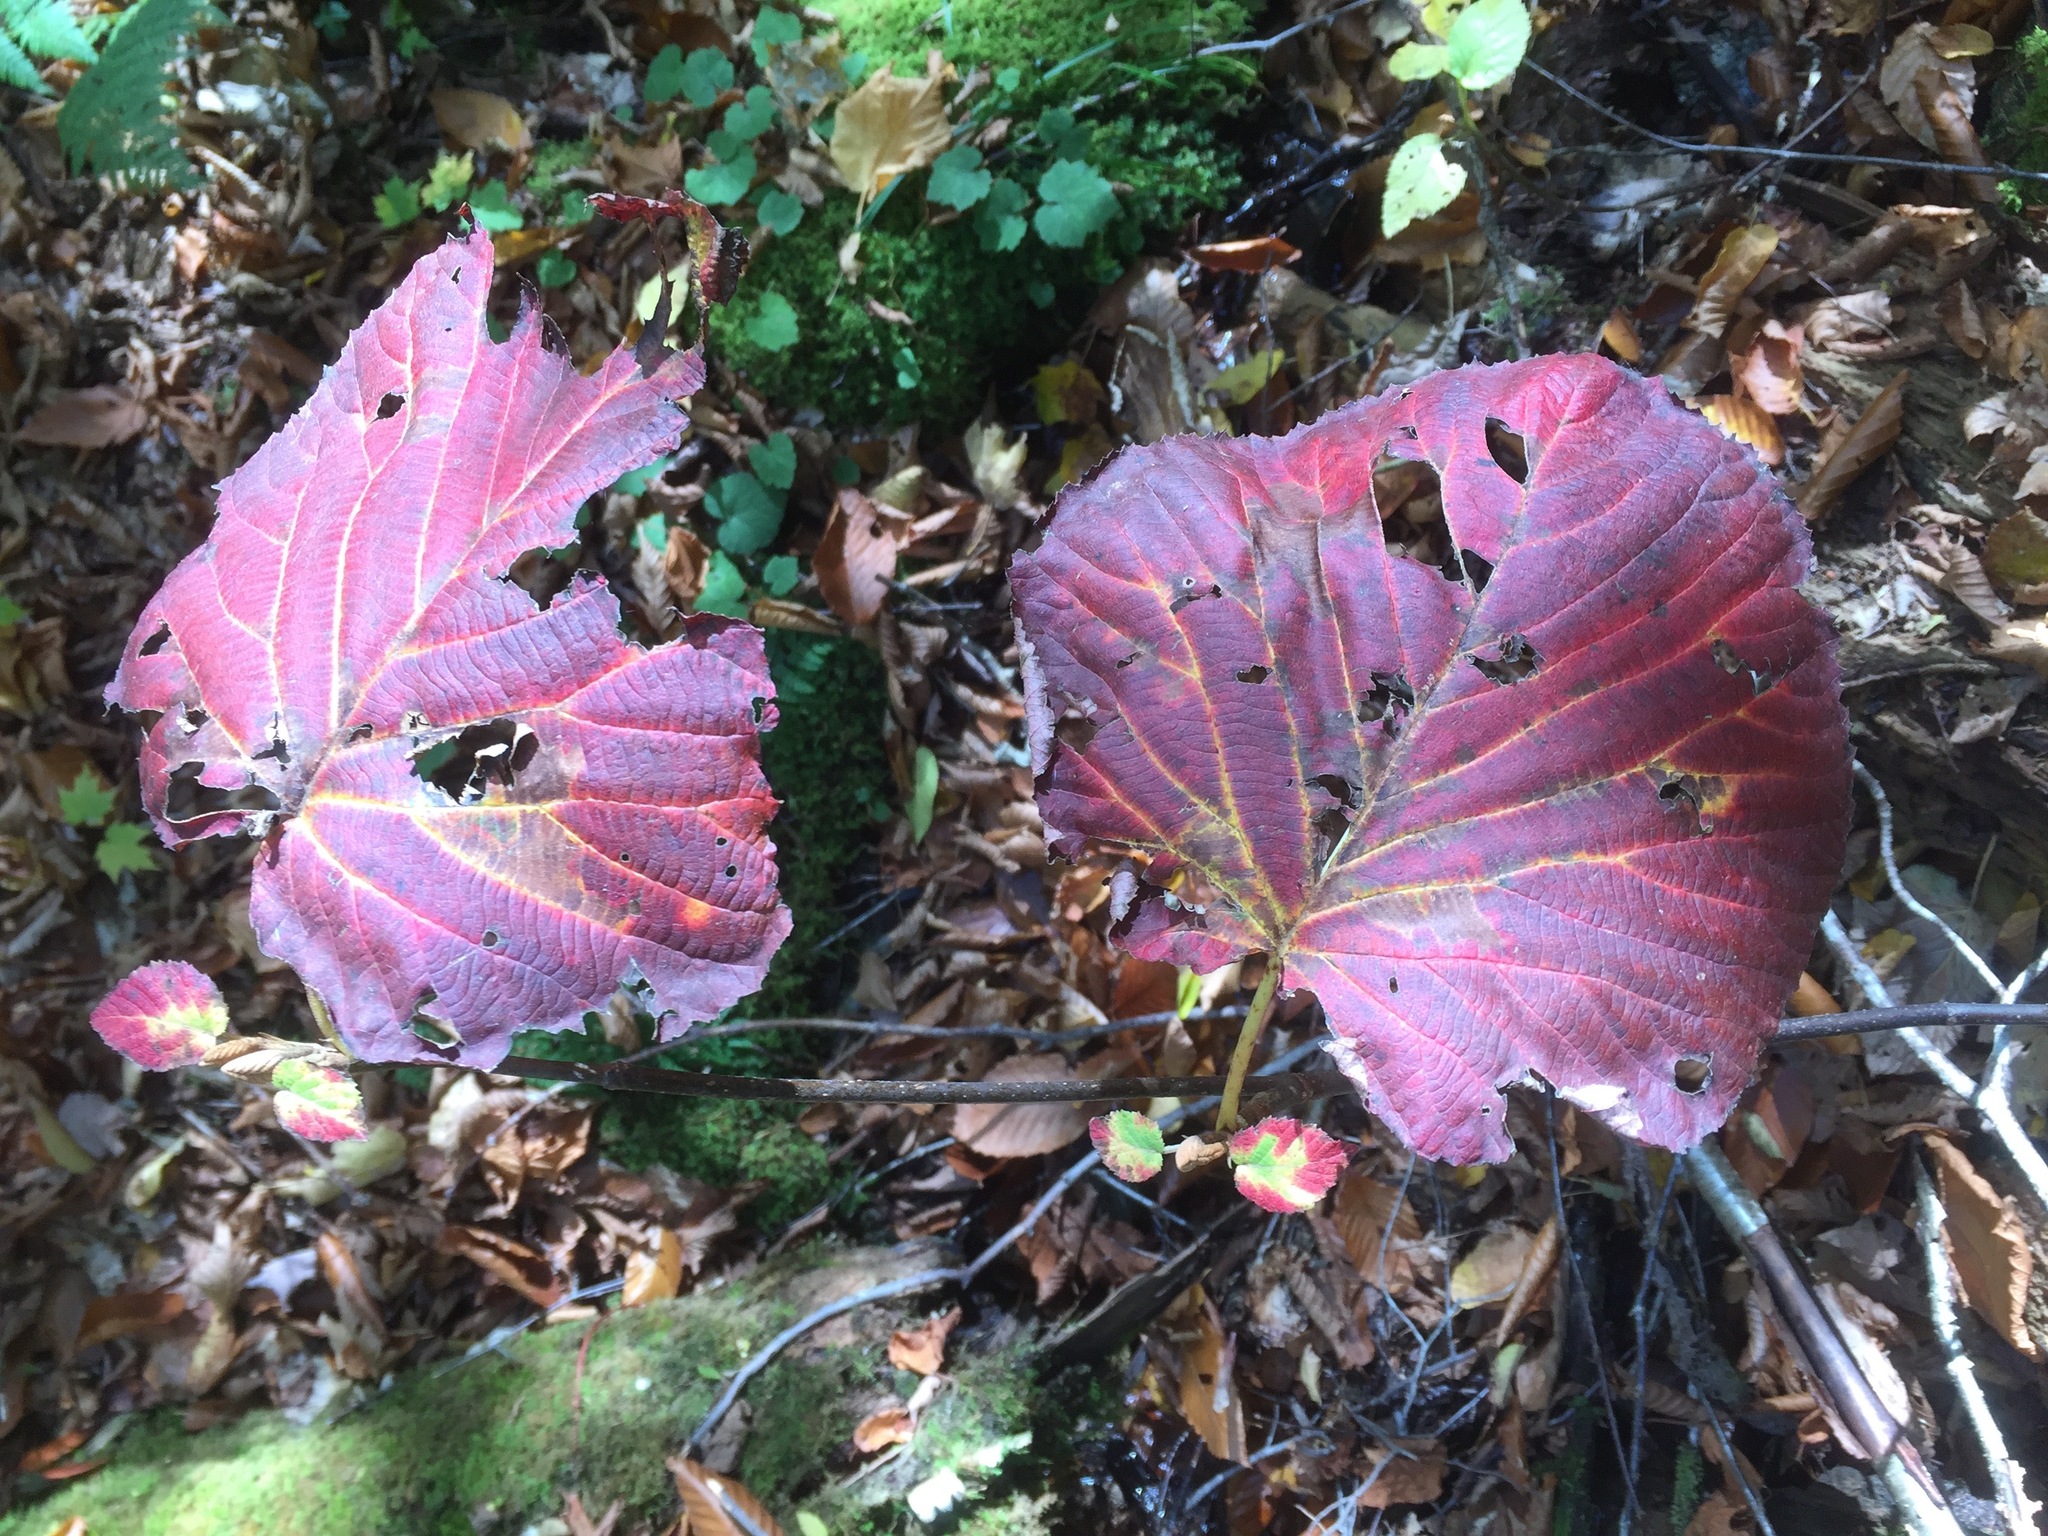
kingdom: Plantae
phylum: Tracheophyta
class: Magnoliopsida
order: Dipsacales
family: Viburnaceae
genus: Viburnum
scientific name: Viburnum lantanoides
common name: Hobblebush
